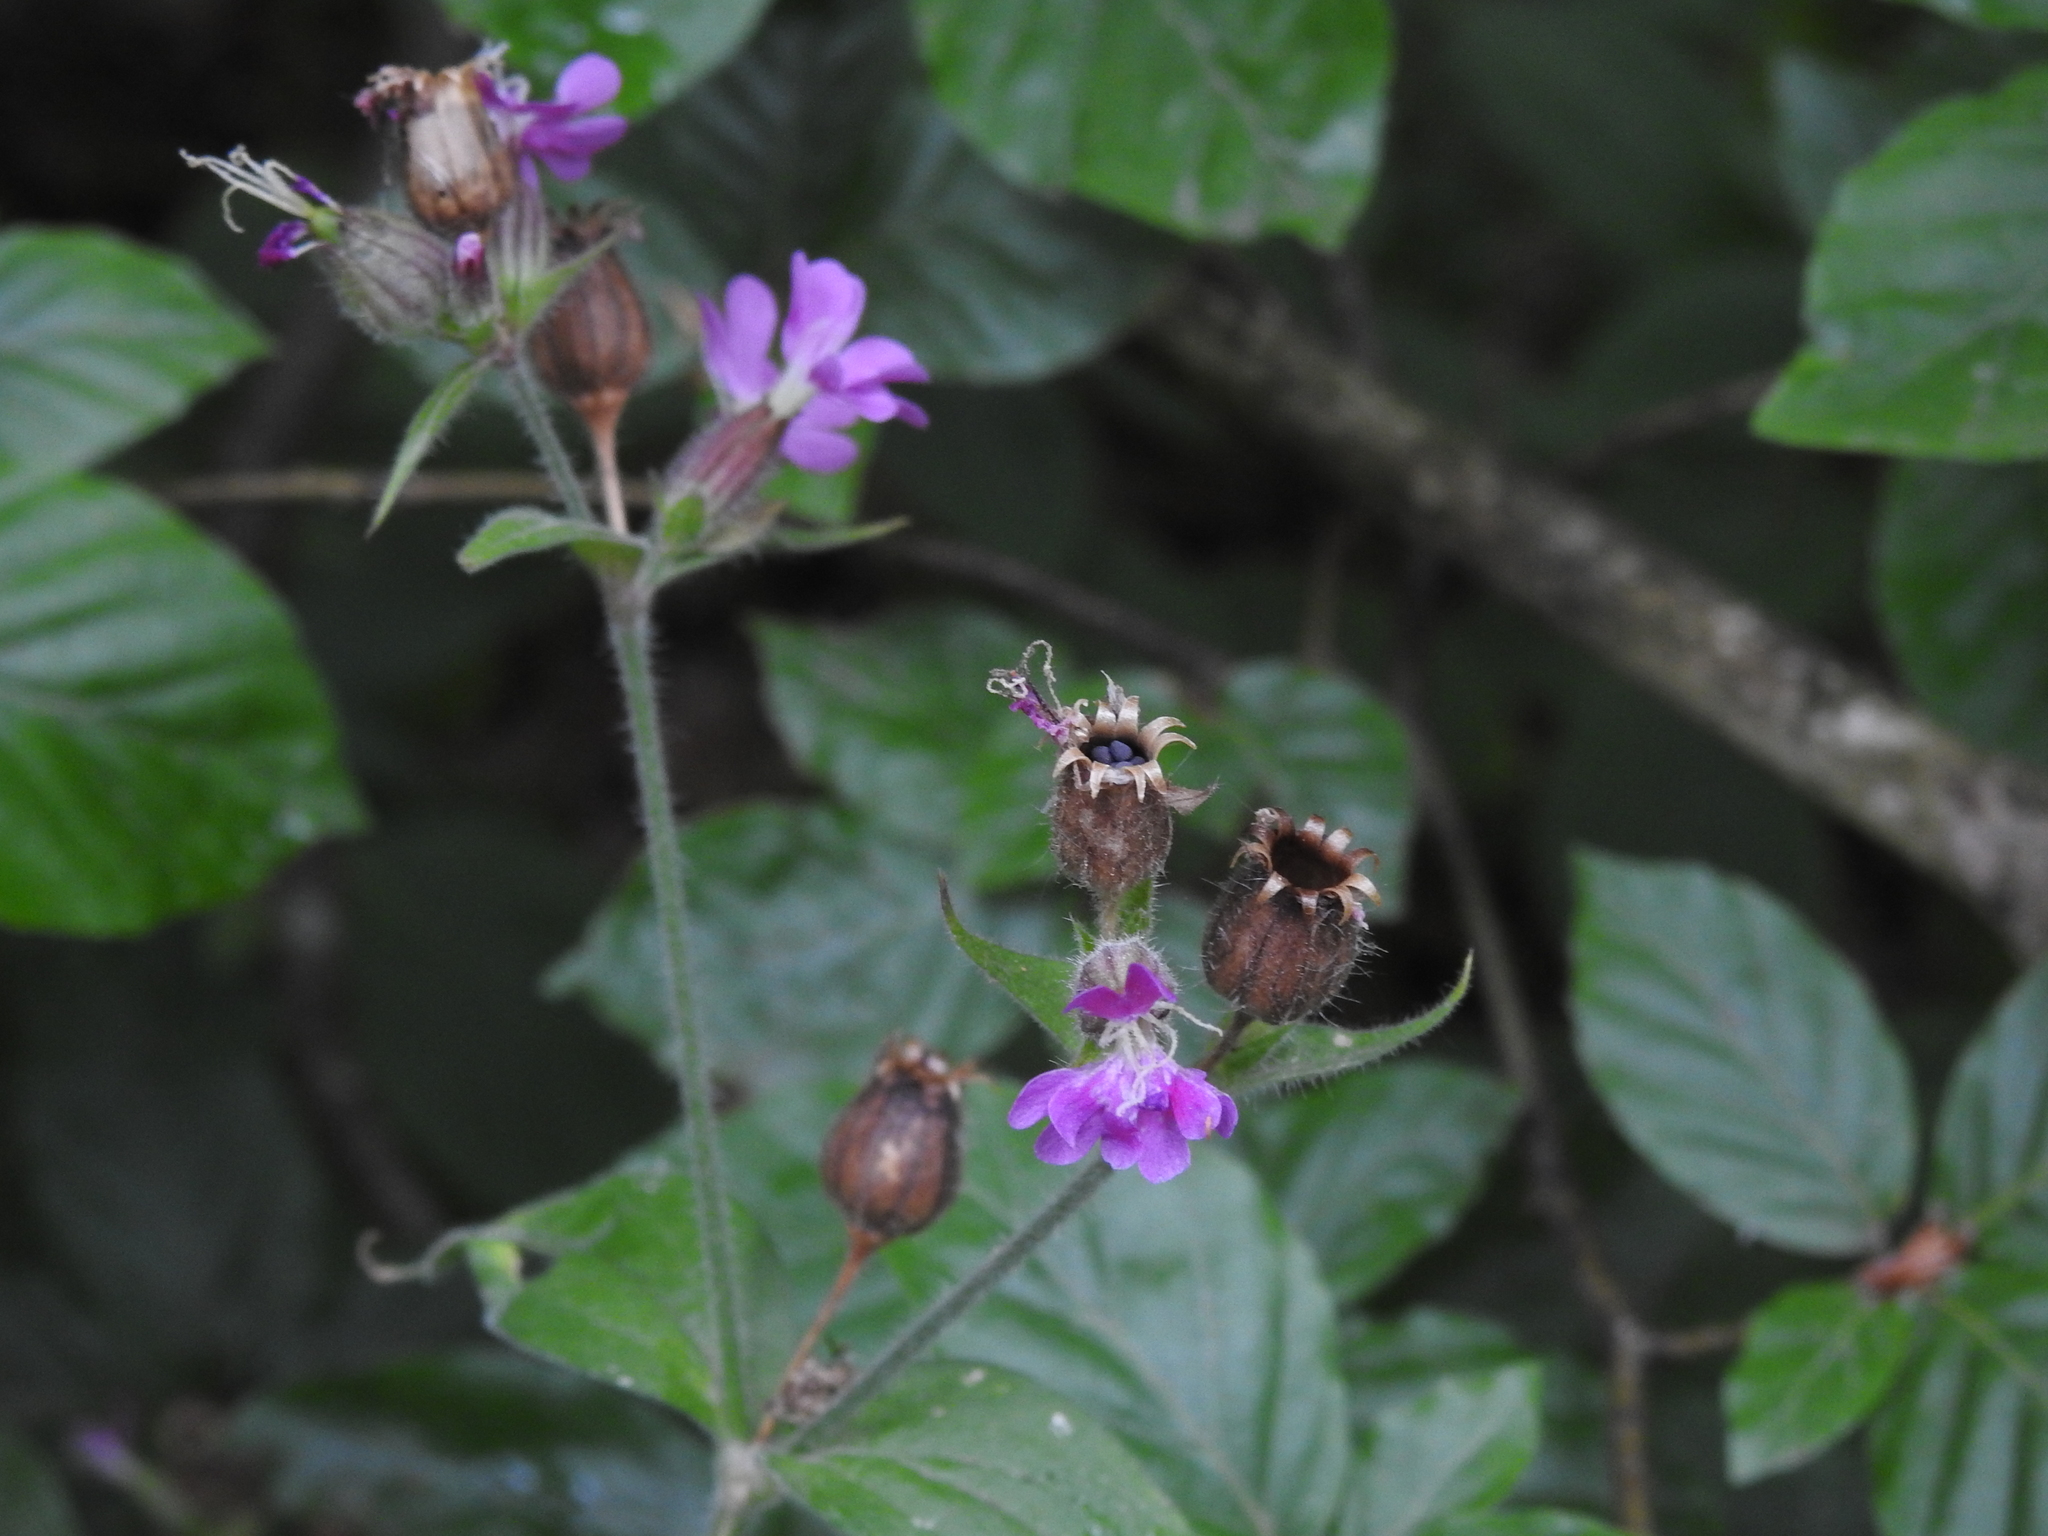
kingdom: Plantae
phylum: Tracheophyta
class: Magnoliopsida
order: Caryophyllales
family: Caryophyllaceae
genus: Silene
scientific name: Silene dioica
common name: Red campion
